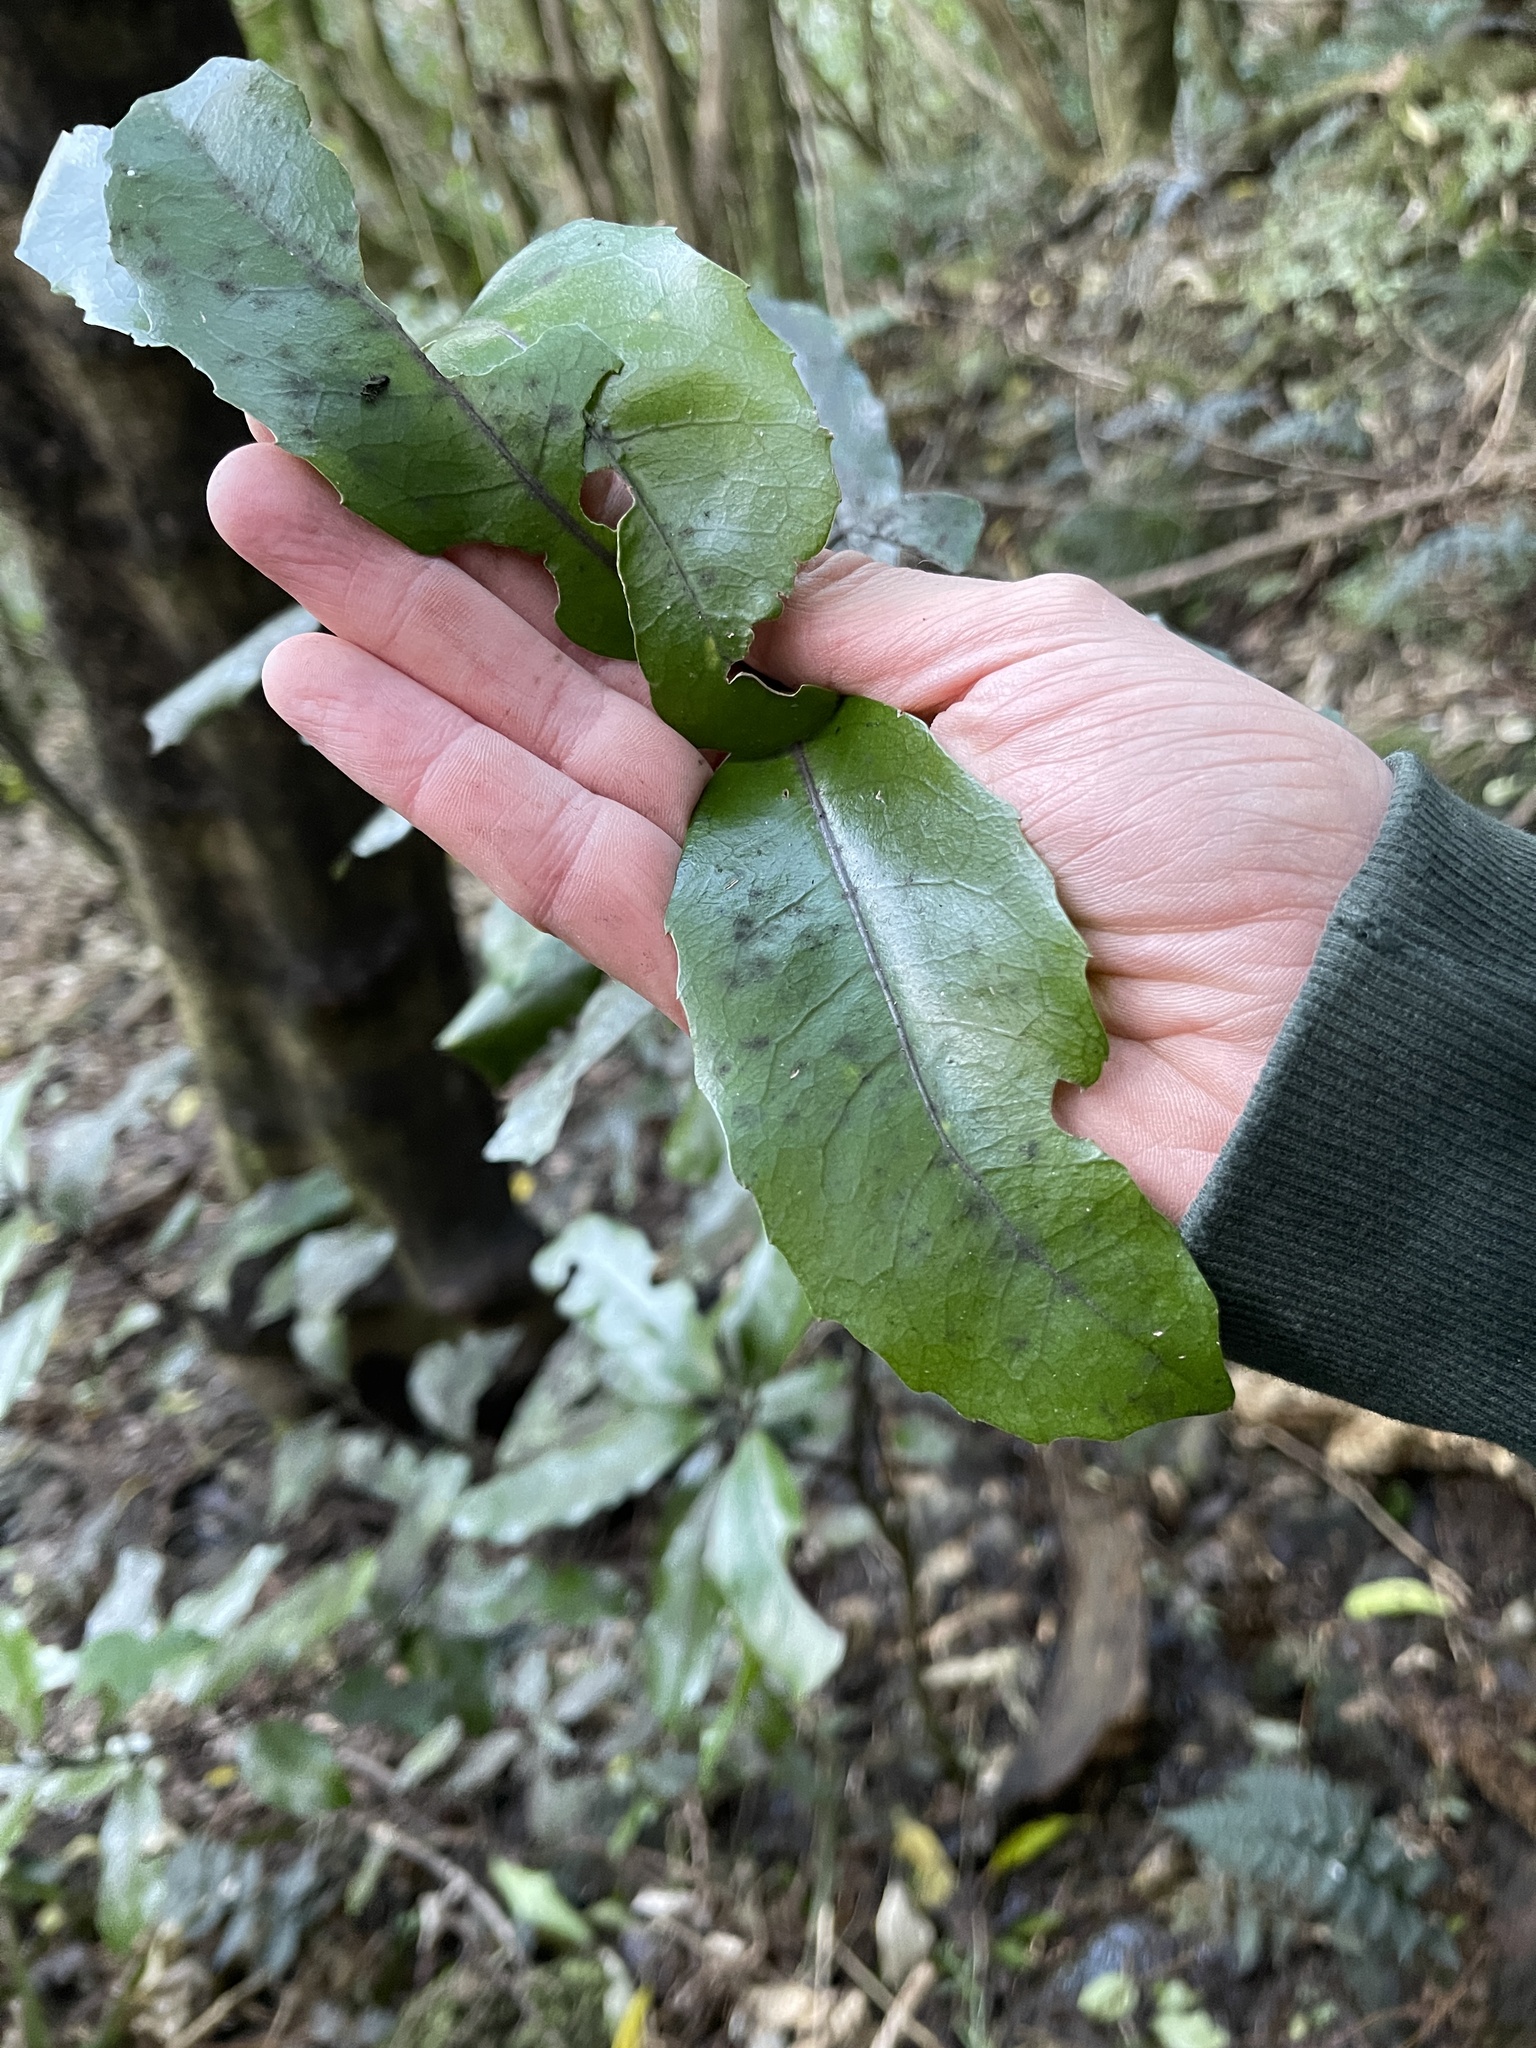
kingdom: Plantae
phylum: Tracheophyta
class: Magnoliopsida
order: Laurales
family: Monimiaceae
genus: Hedycarya
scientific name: Hedycarya arborea
